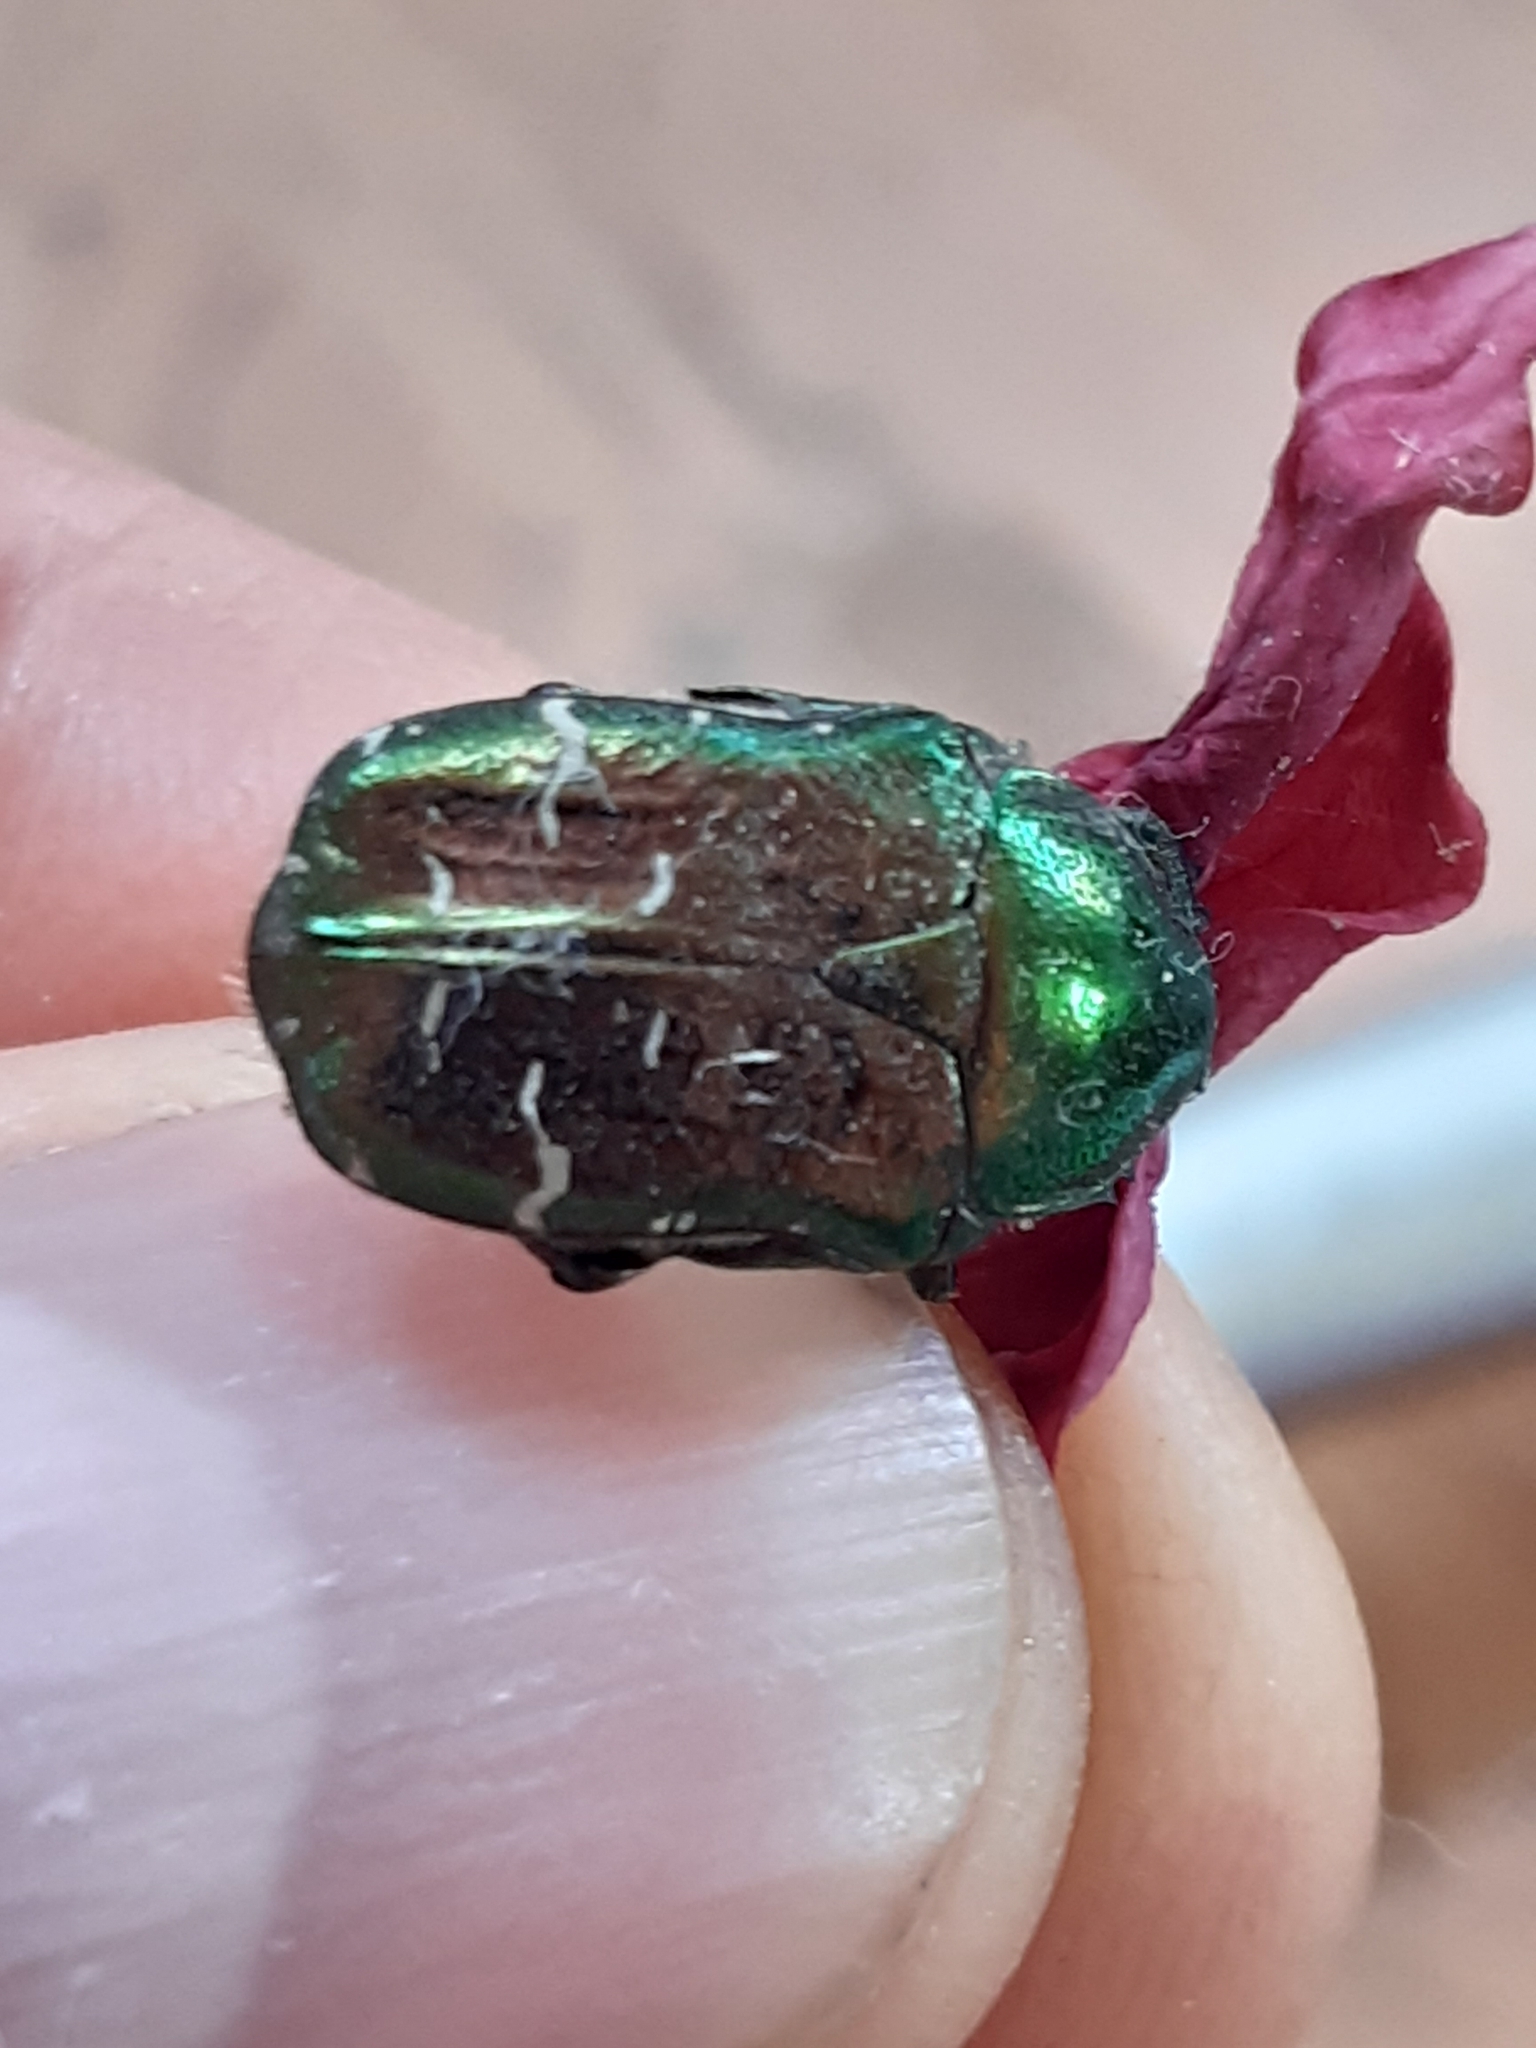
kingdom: Animalia
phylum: Arthropoda
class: Insecta
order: Coleoptera
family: Scarabaeidae
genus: Cetonia
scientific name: Cetonia aurata
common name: Rose chafer
